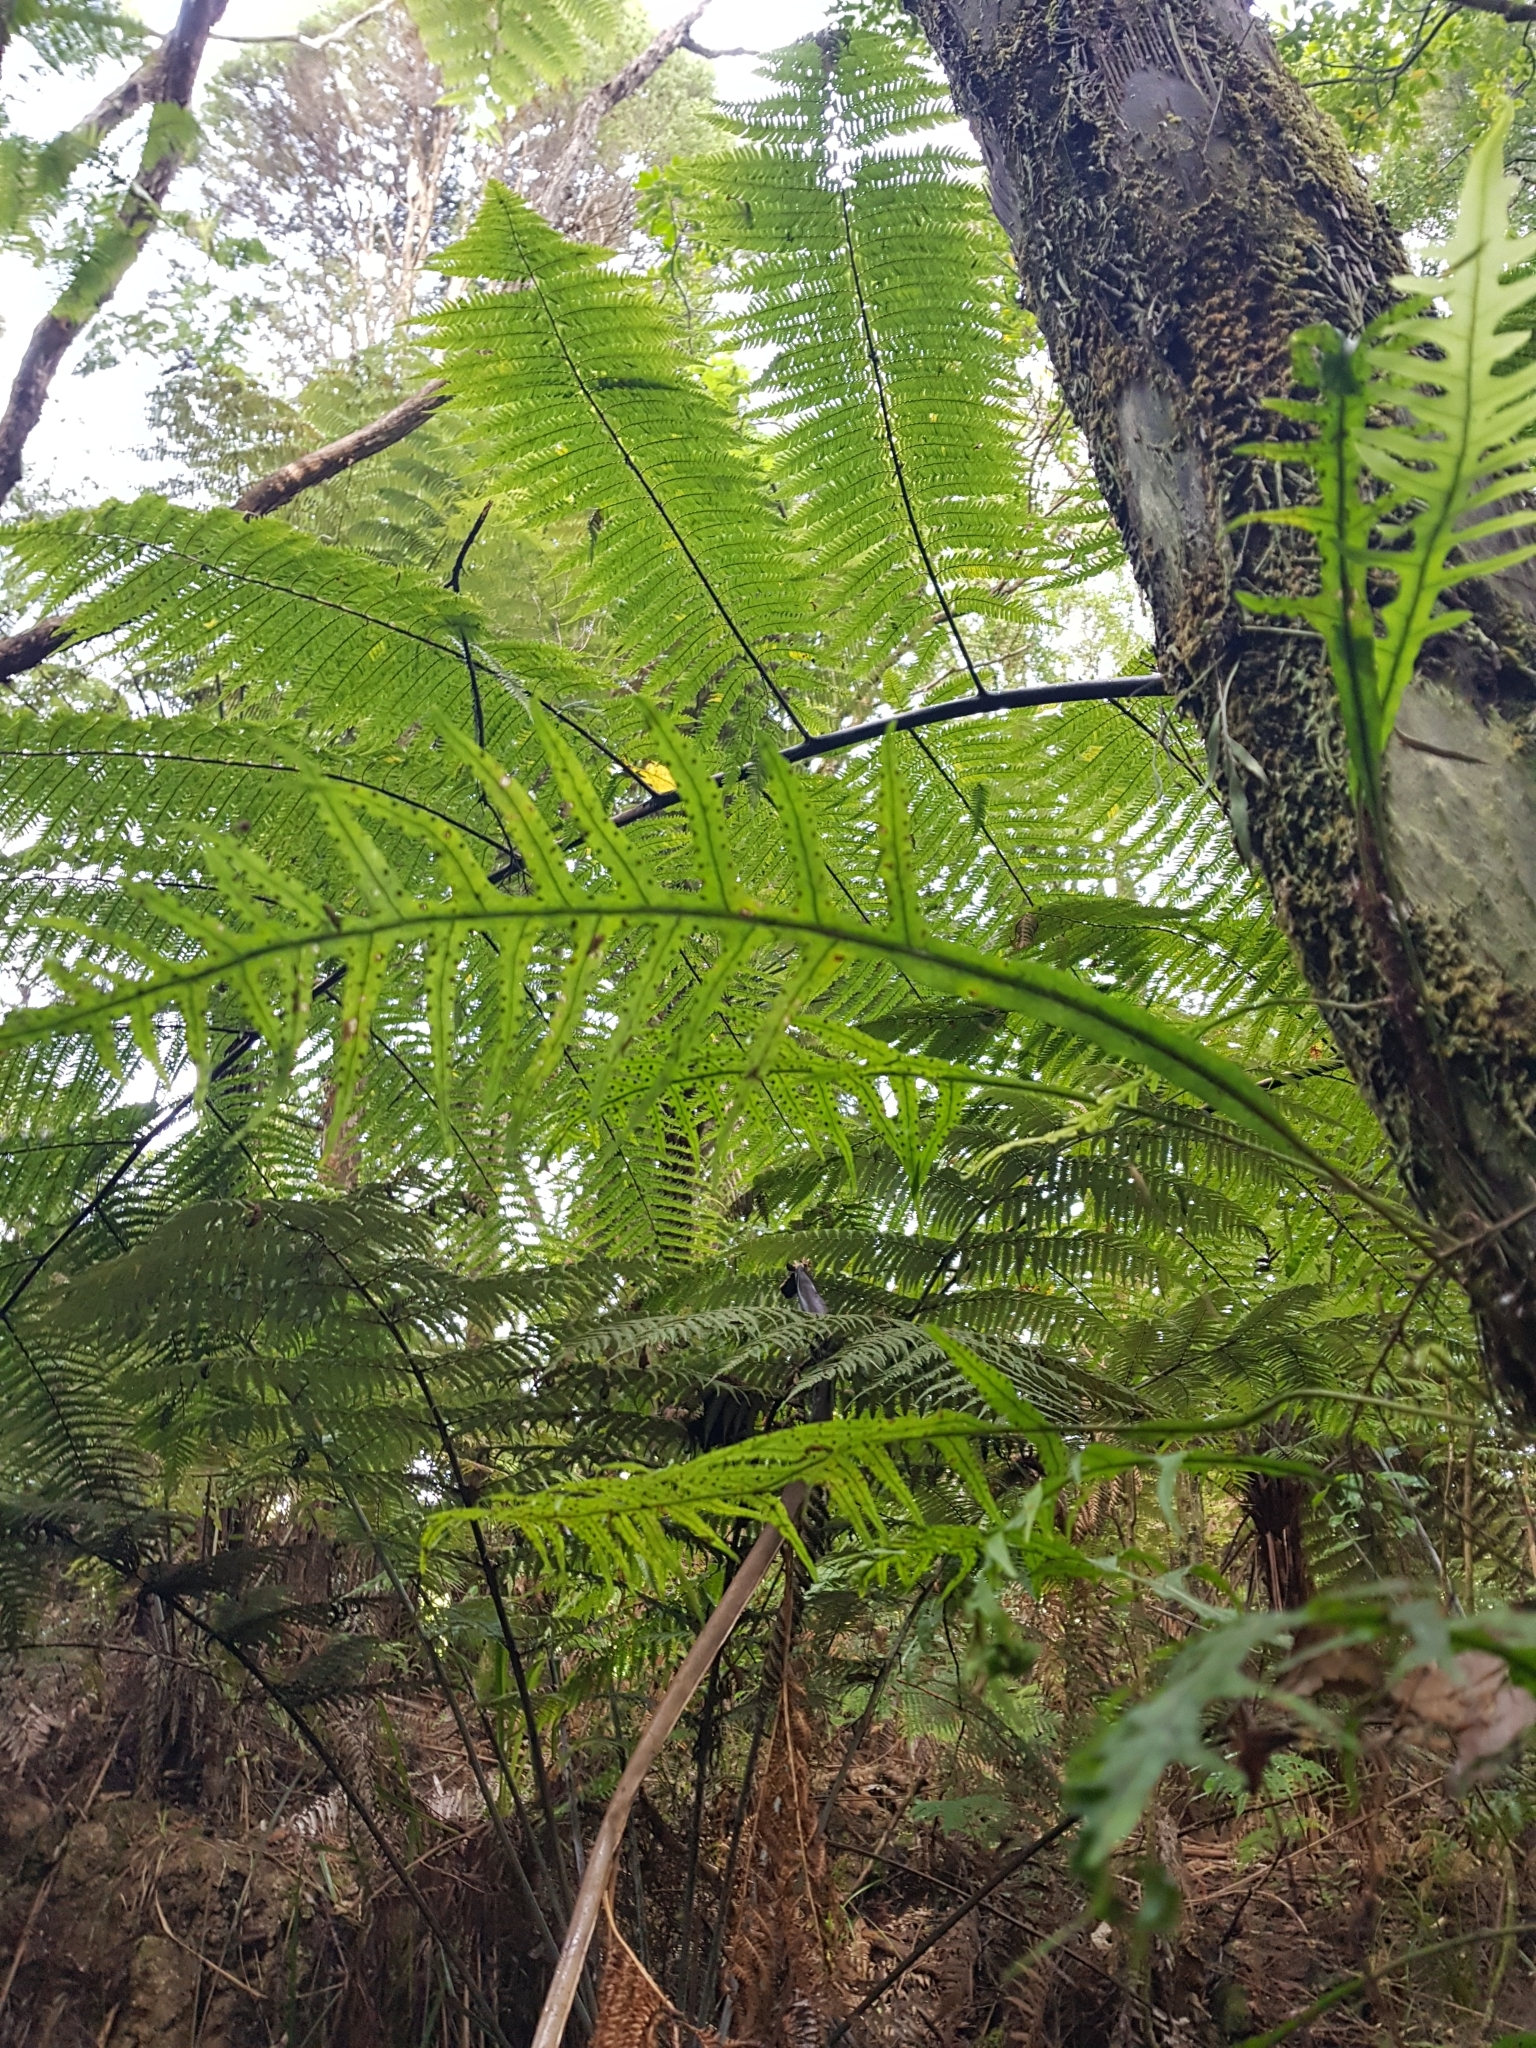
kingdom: Plantae
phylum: Tracheophyta
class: Polypodiopsida
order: Polypodiales
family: Polypodiaceae
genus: Lecanopteris
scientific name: Lecanopteris scandens
